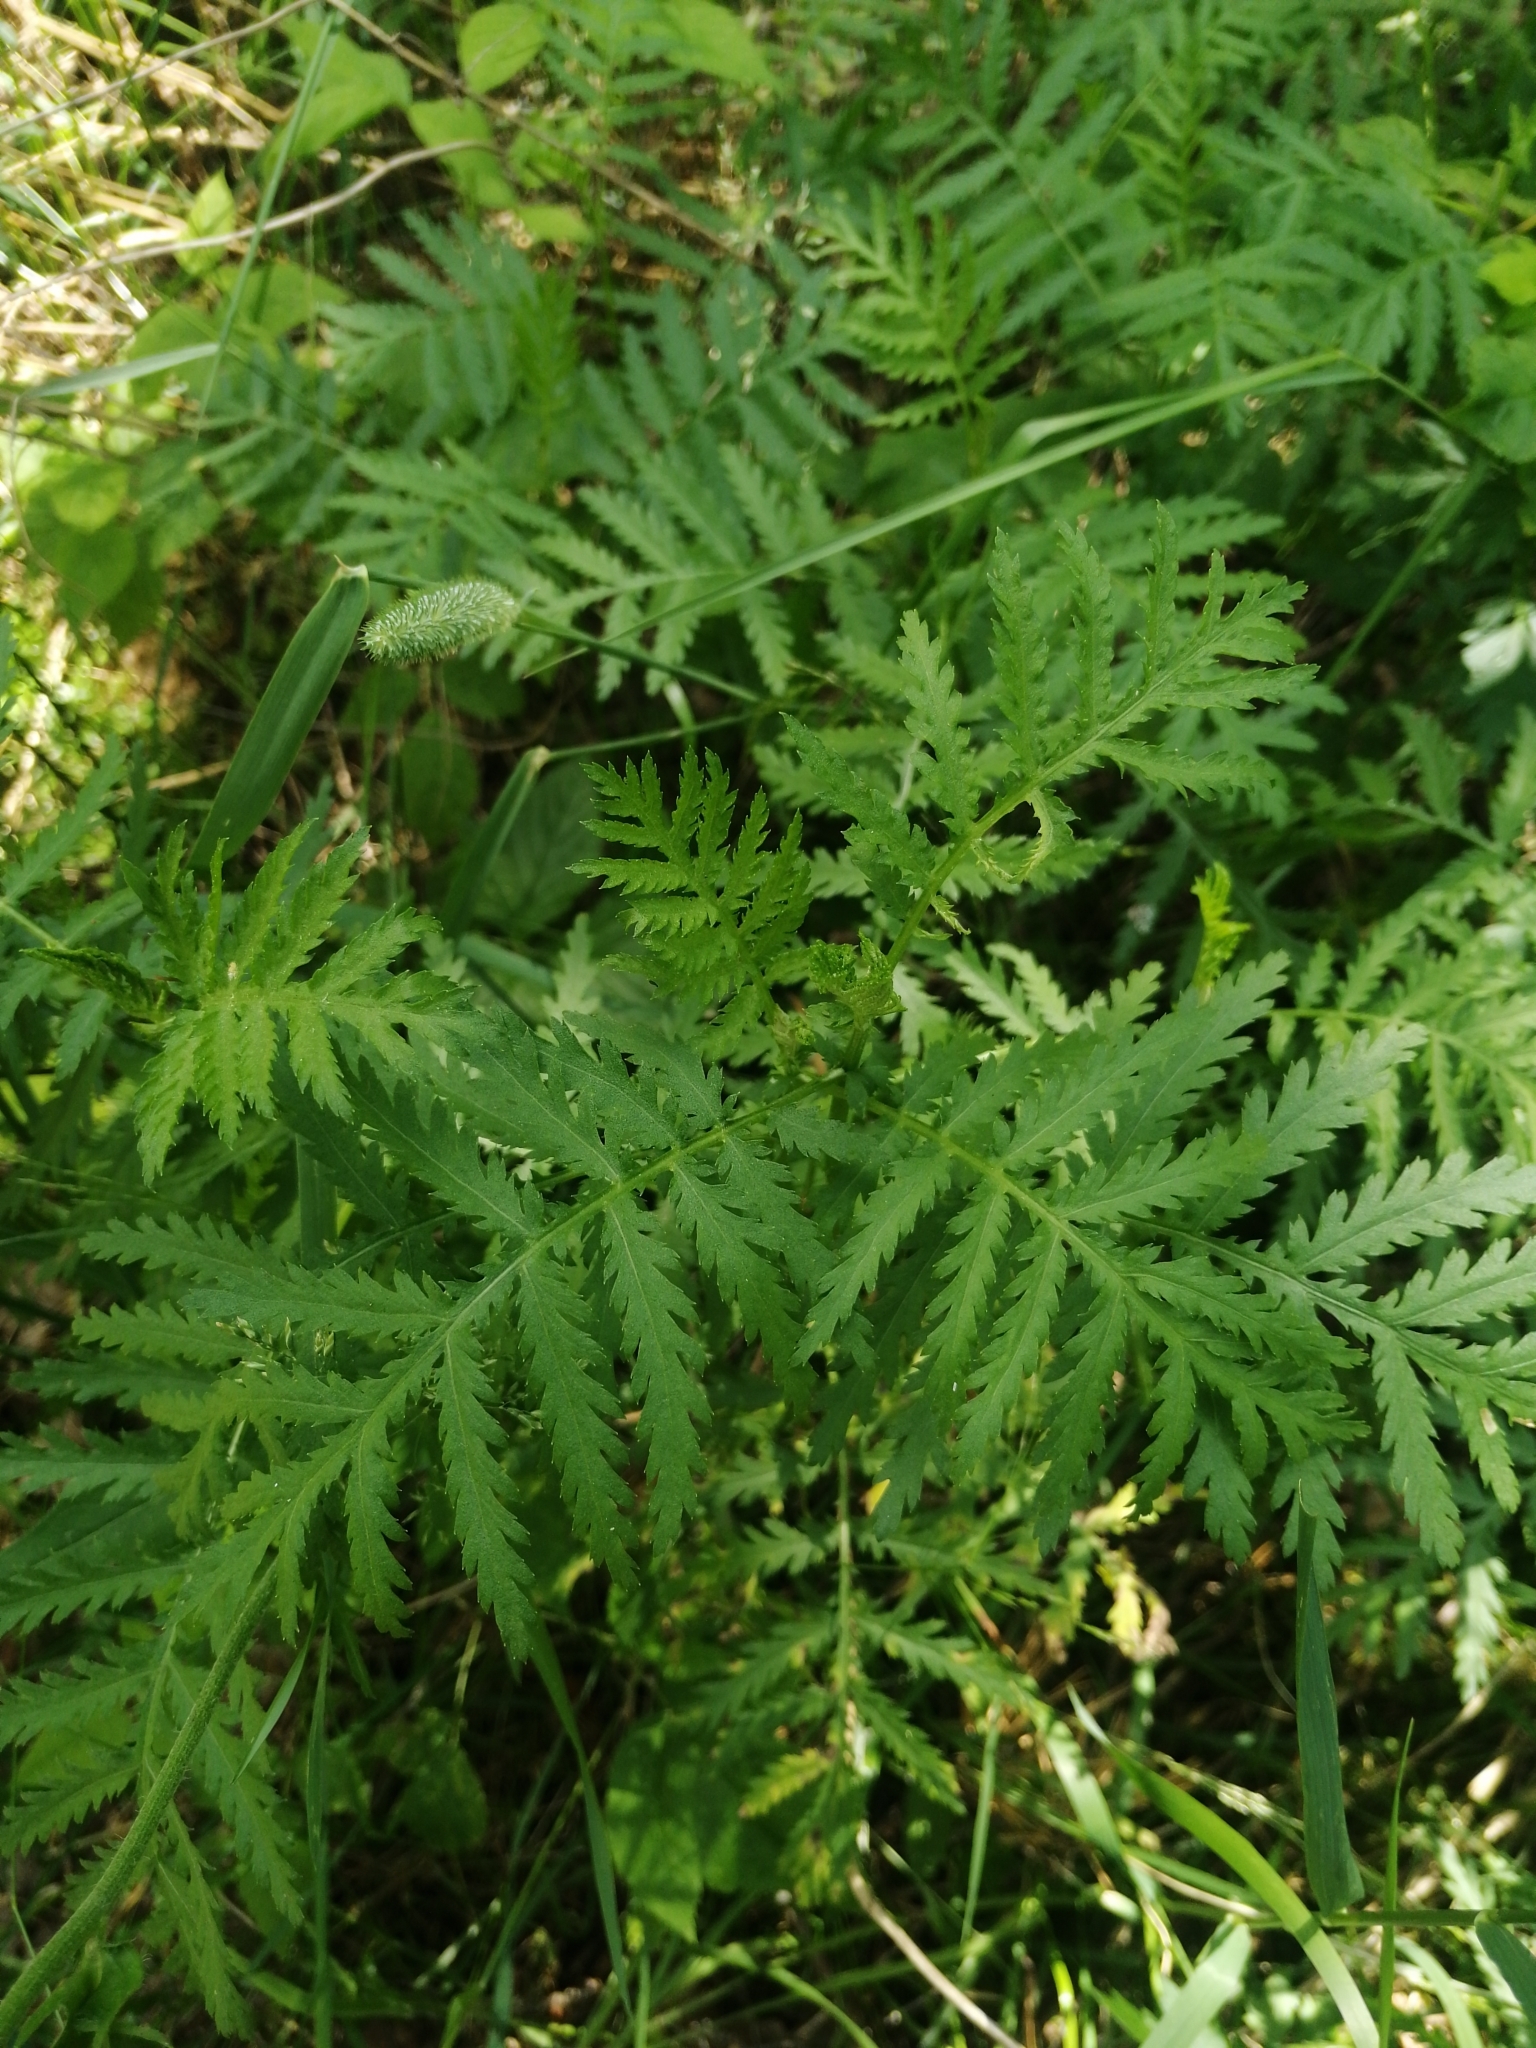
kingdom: Plantae
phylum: Tracheophyta
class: Magnoliopsida
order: Asterales
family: Asteraceae
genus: Tanacetum
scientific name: Tanacetum vulgare
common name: Common tansy
